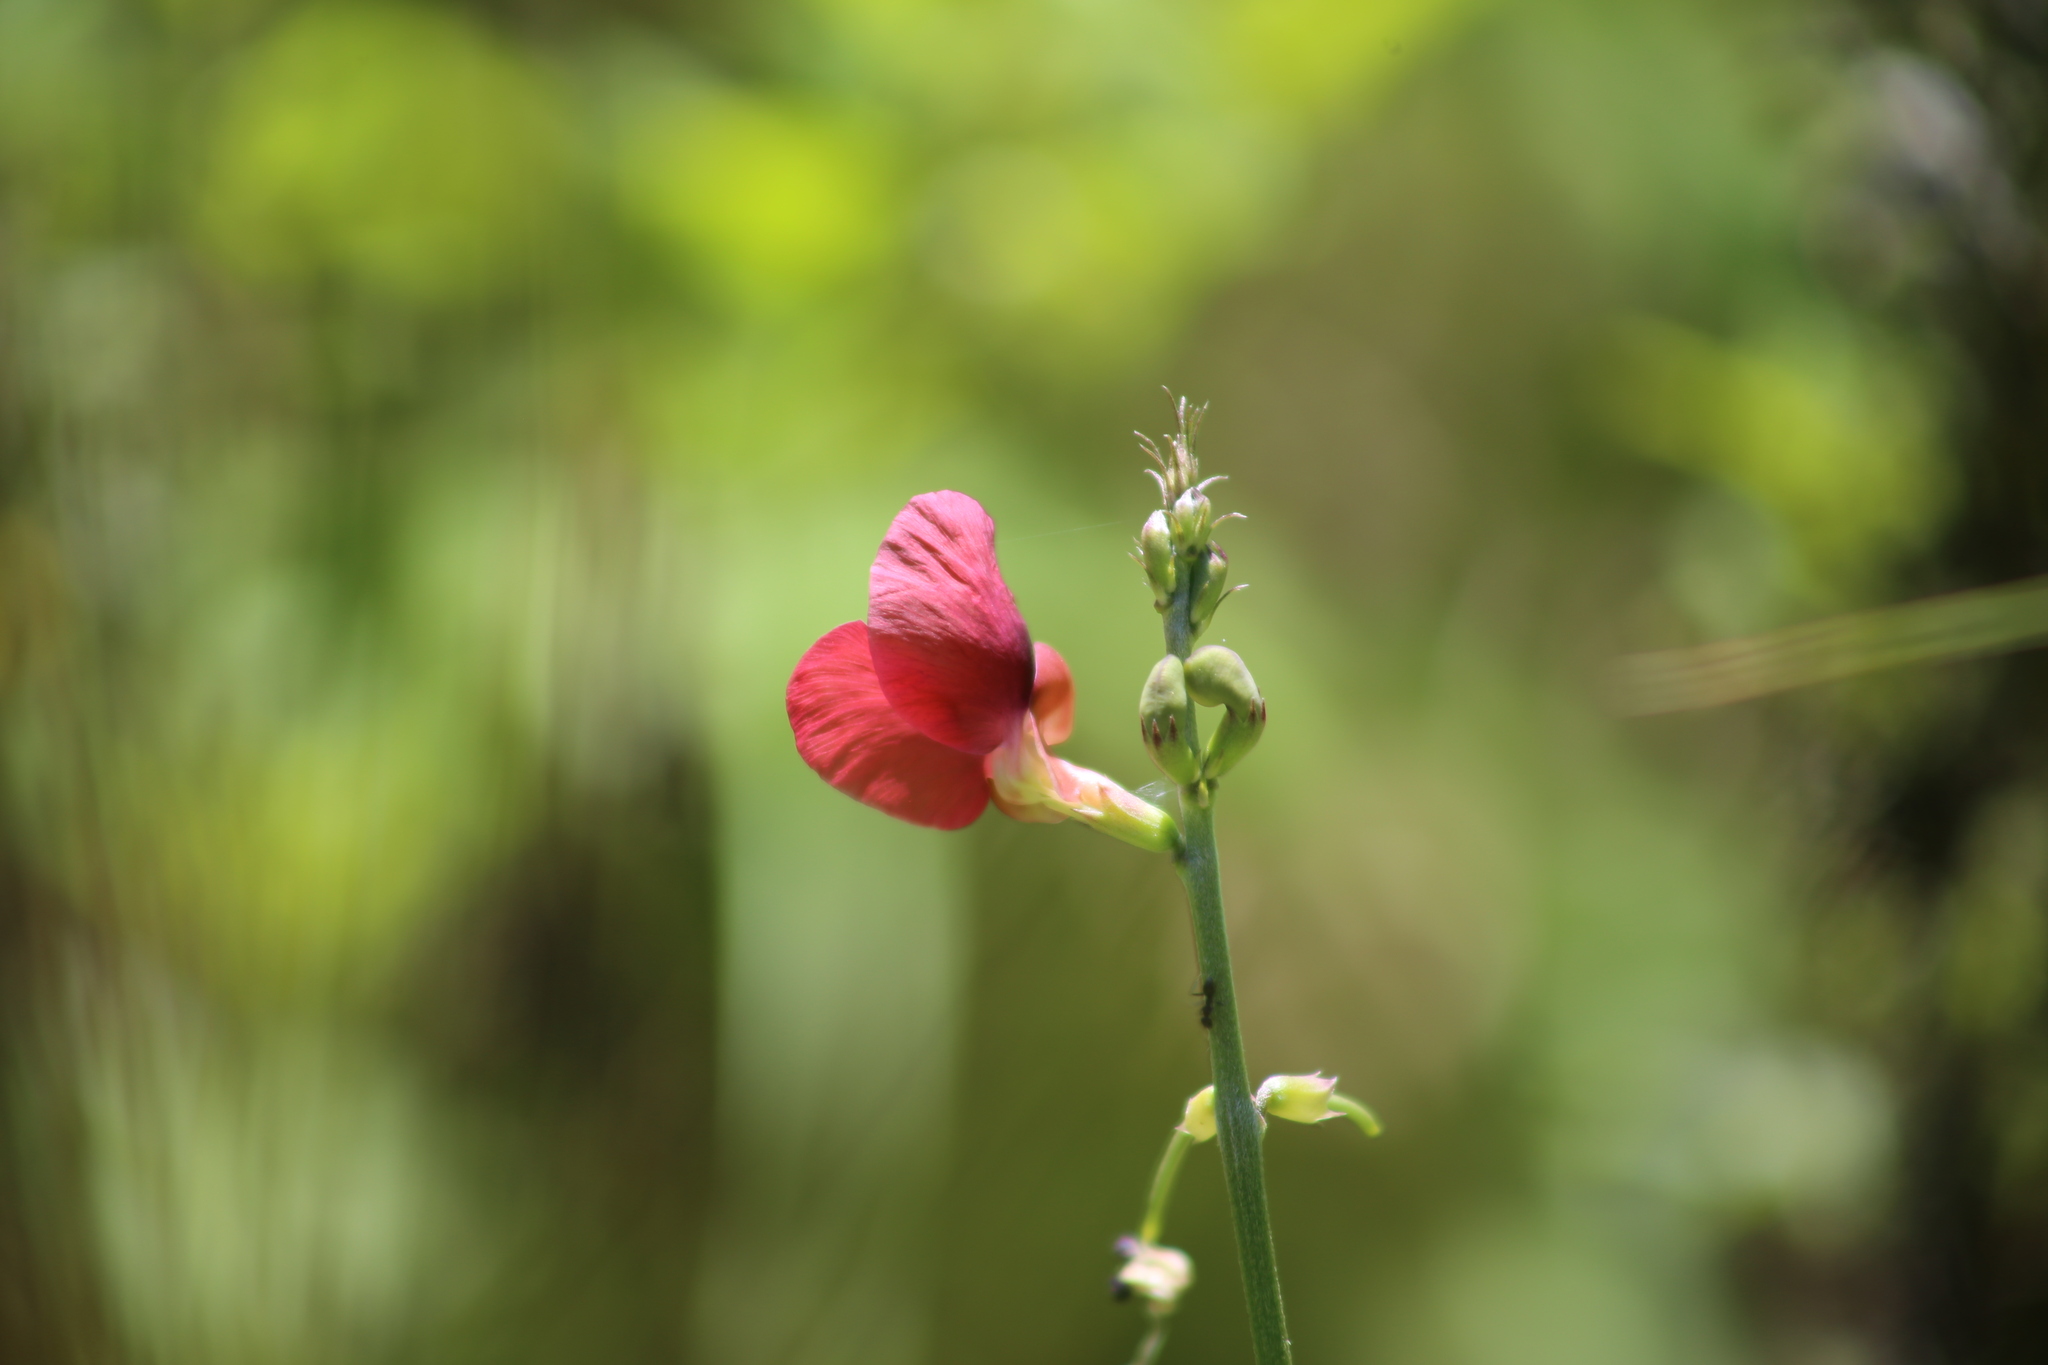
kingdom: Plantae
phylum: Tracheophyta
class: Magnoliopsida
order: Fabales
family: Fabaceae
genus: Macroptilium
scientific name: Macroptilium lathyroides
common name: Wild bushbean
